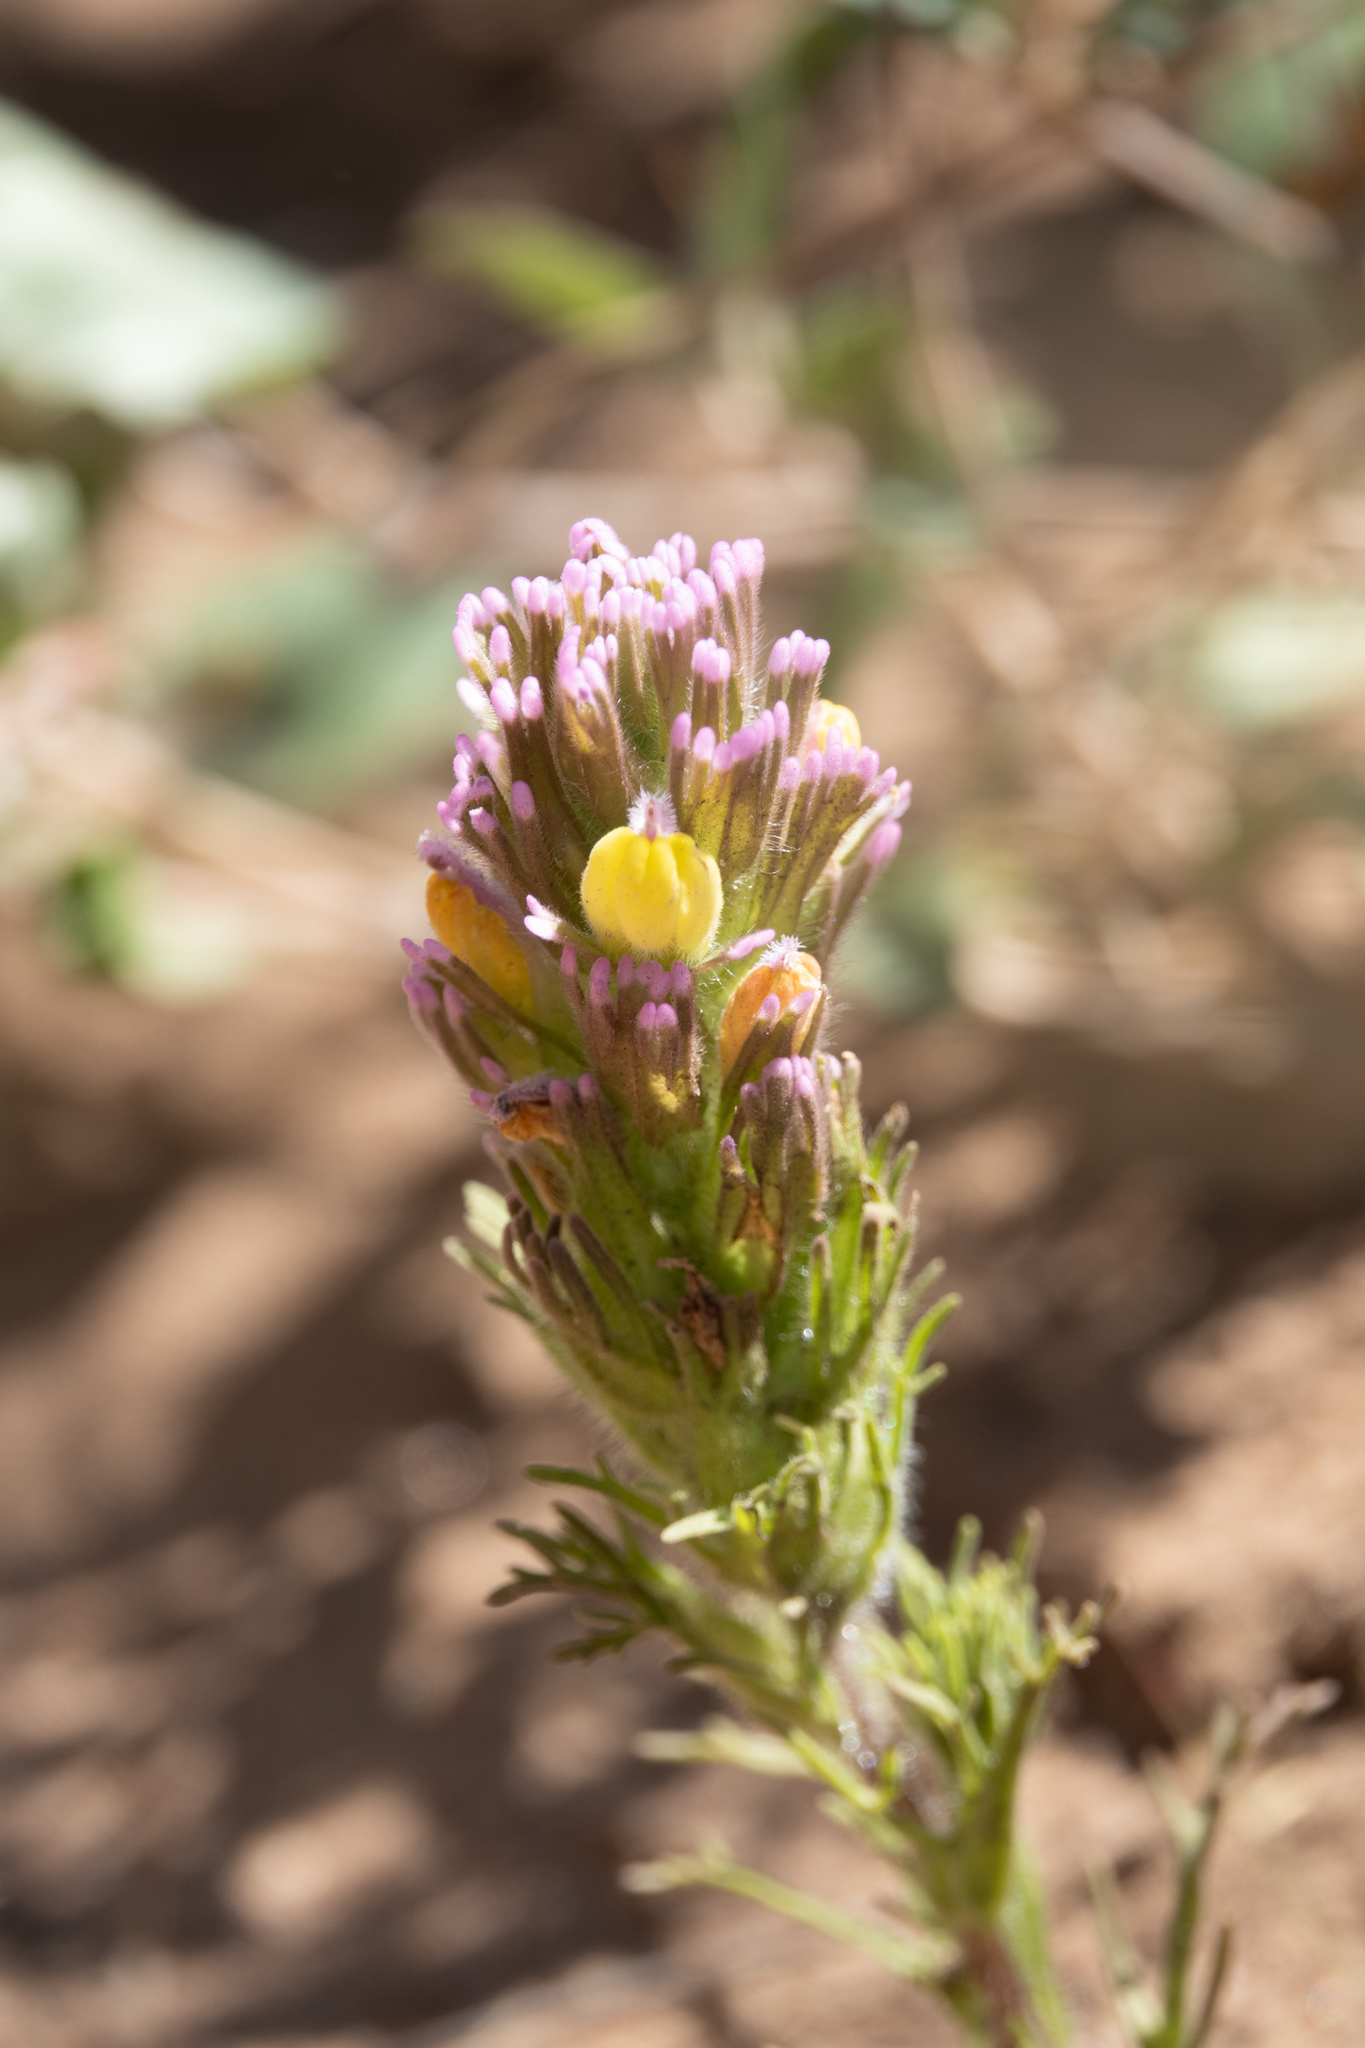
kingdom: Plantae
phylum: Tracheophyta
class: Magnoliopsida
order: Lamiales
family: Orobanchaceae
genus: Castilleja
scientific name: Castilleja exserta
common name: Purple owl-clover
